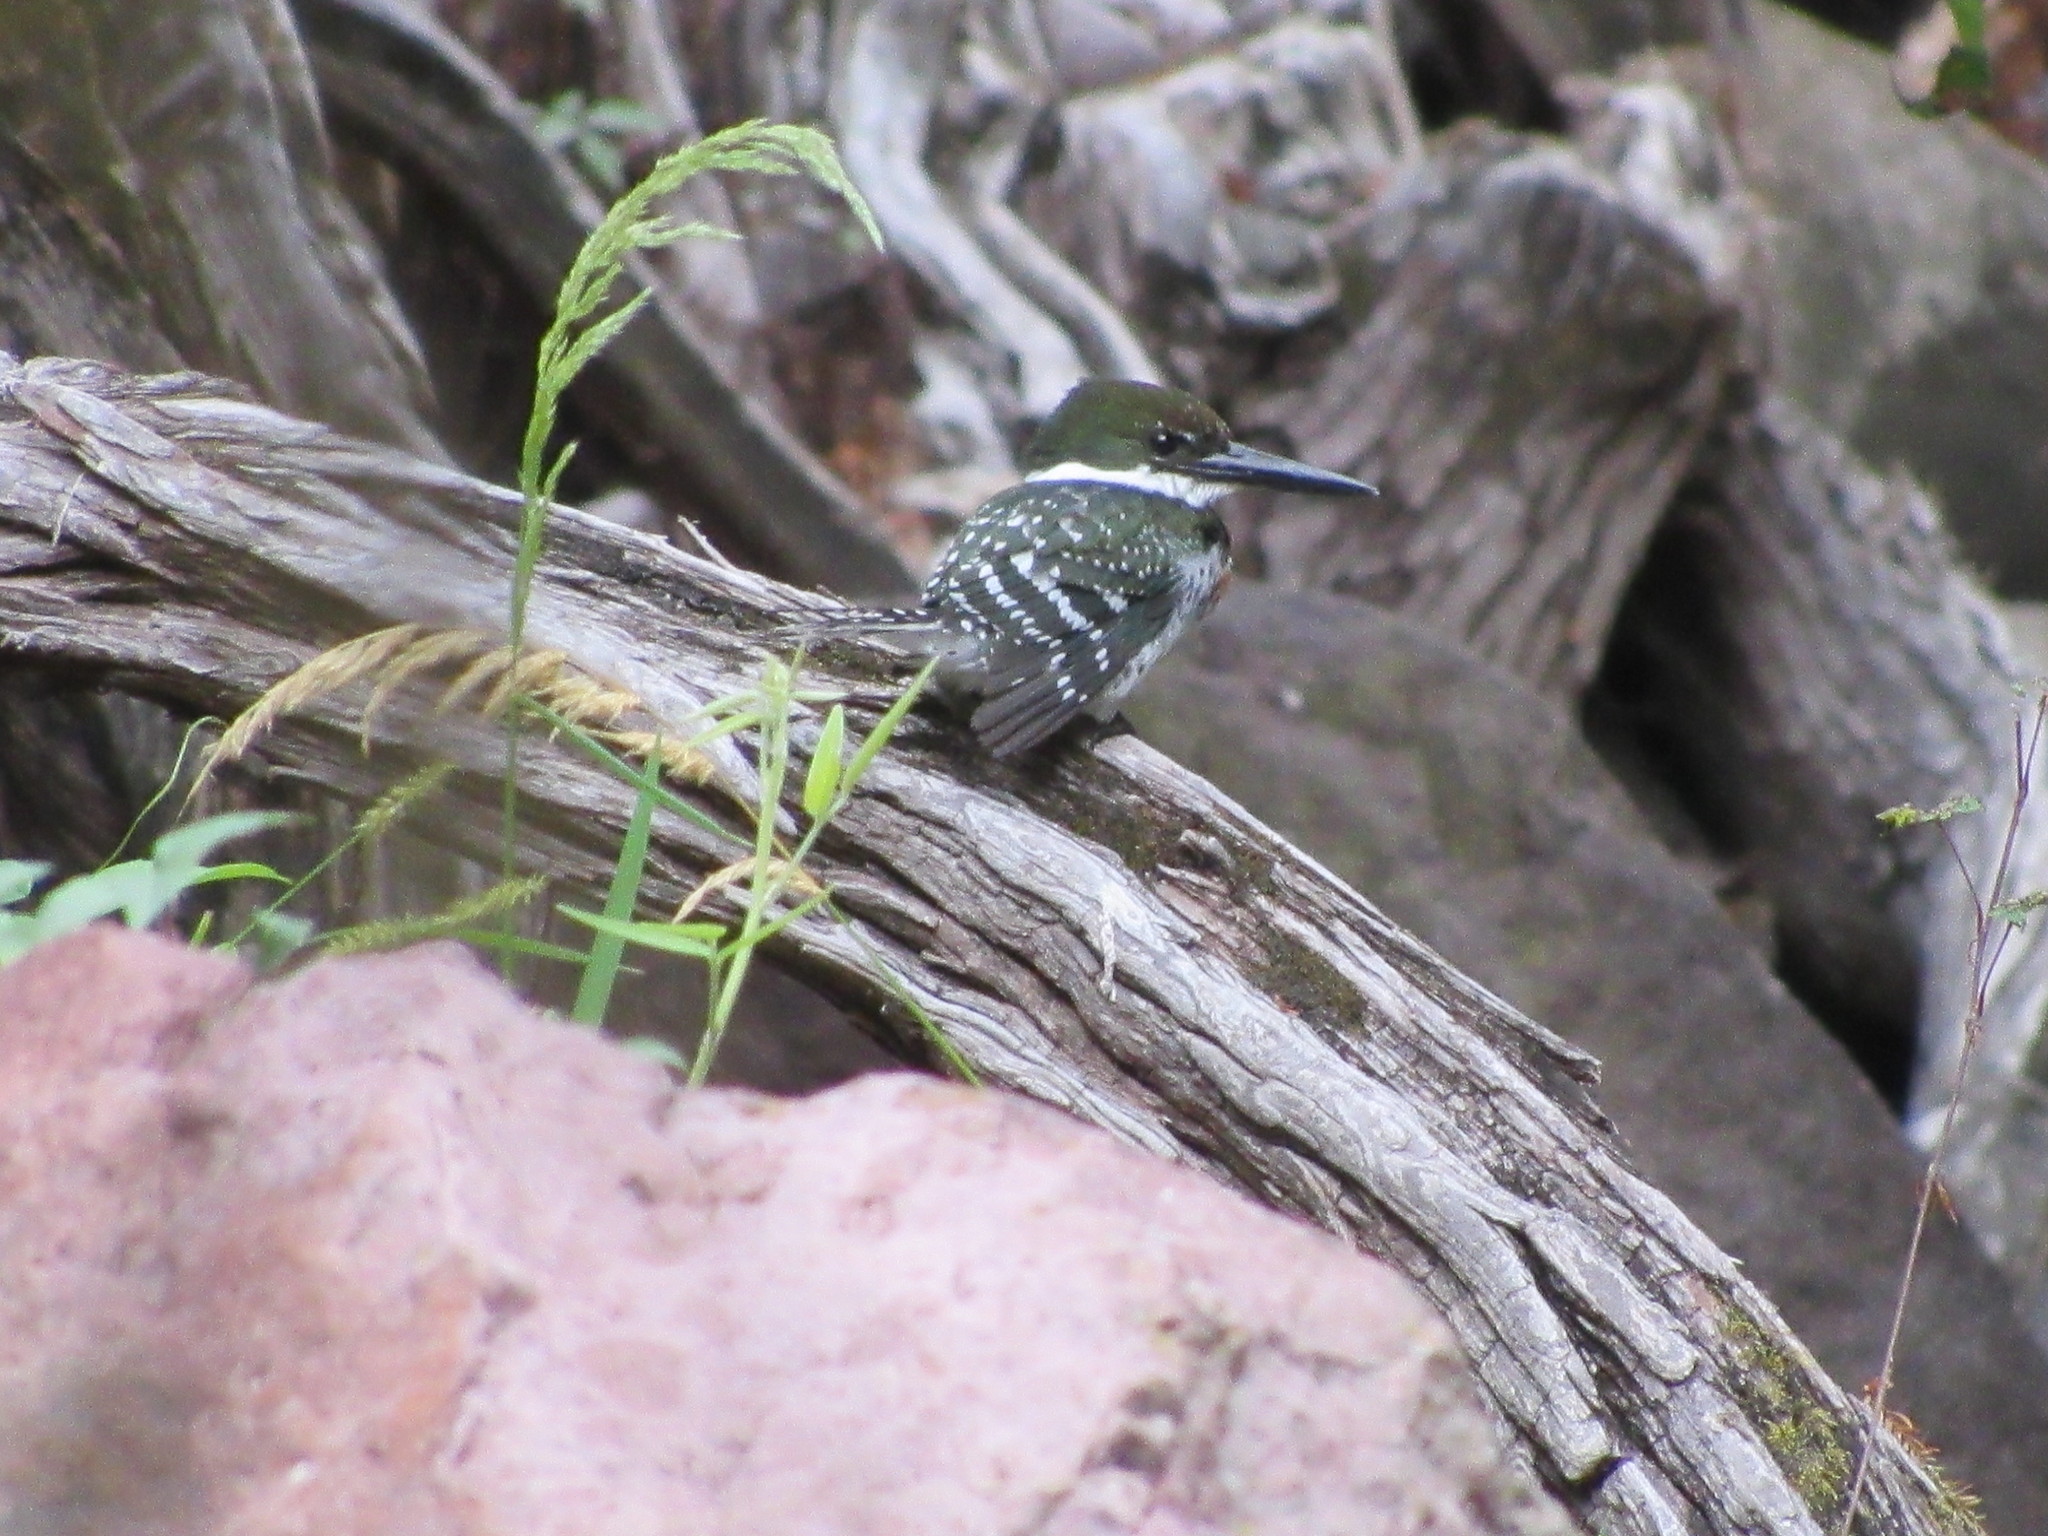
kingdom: Animalia
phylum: Chordata
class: Aves
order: Coraciiformes
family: Alcedinidae
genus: Chloroceryle
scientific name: Chloroceryle americana
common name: Green kingfisher
